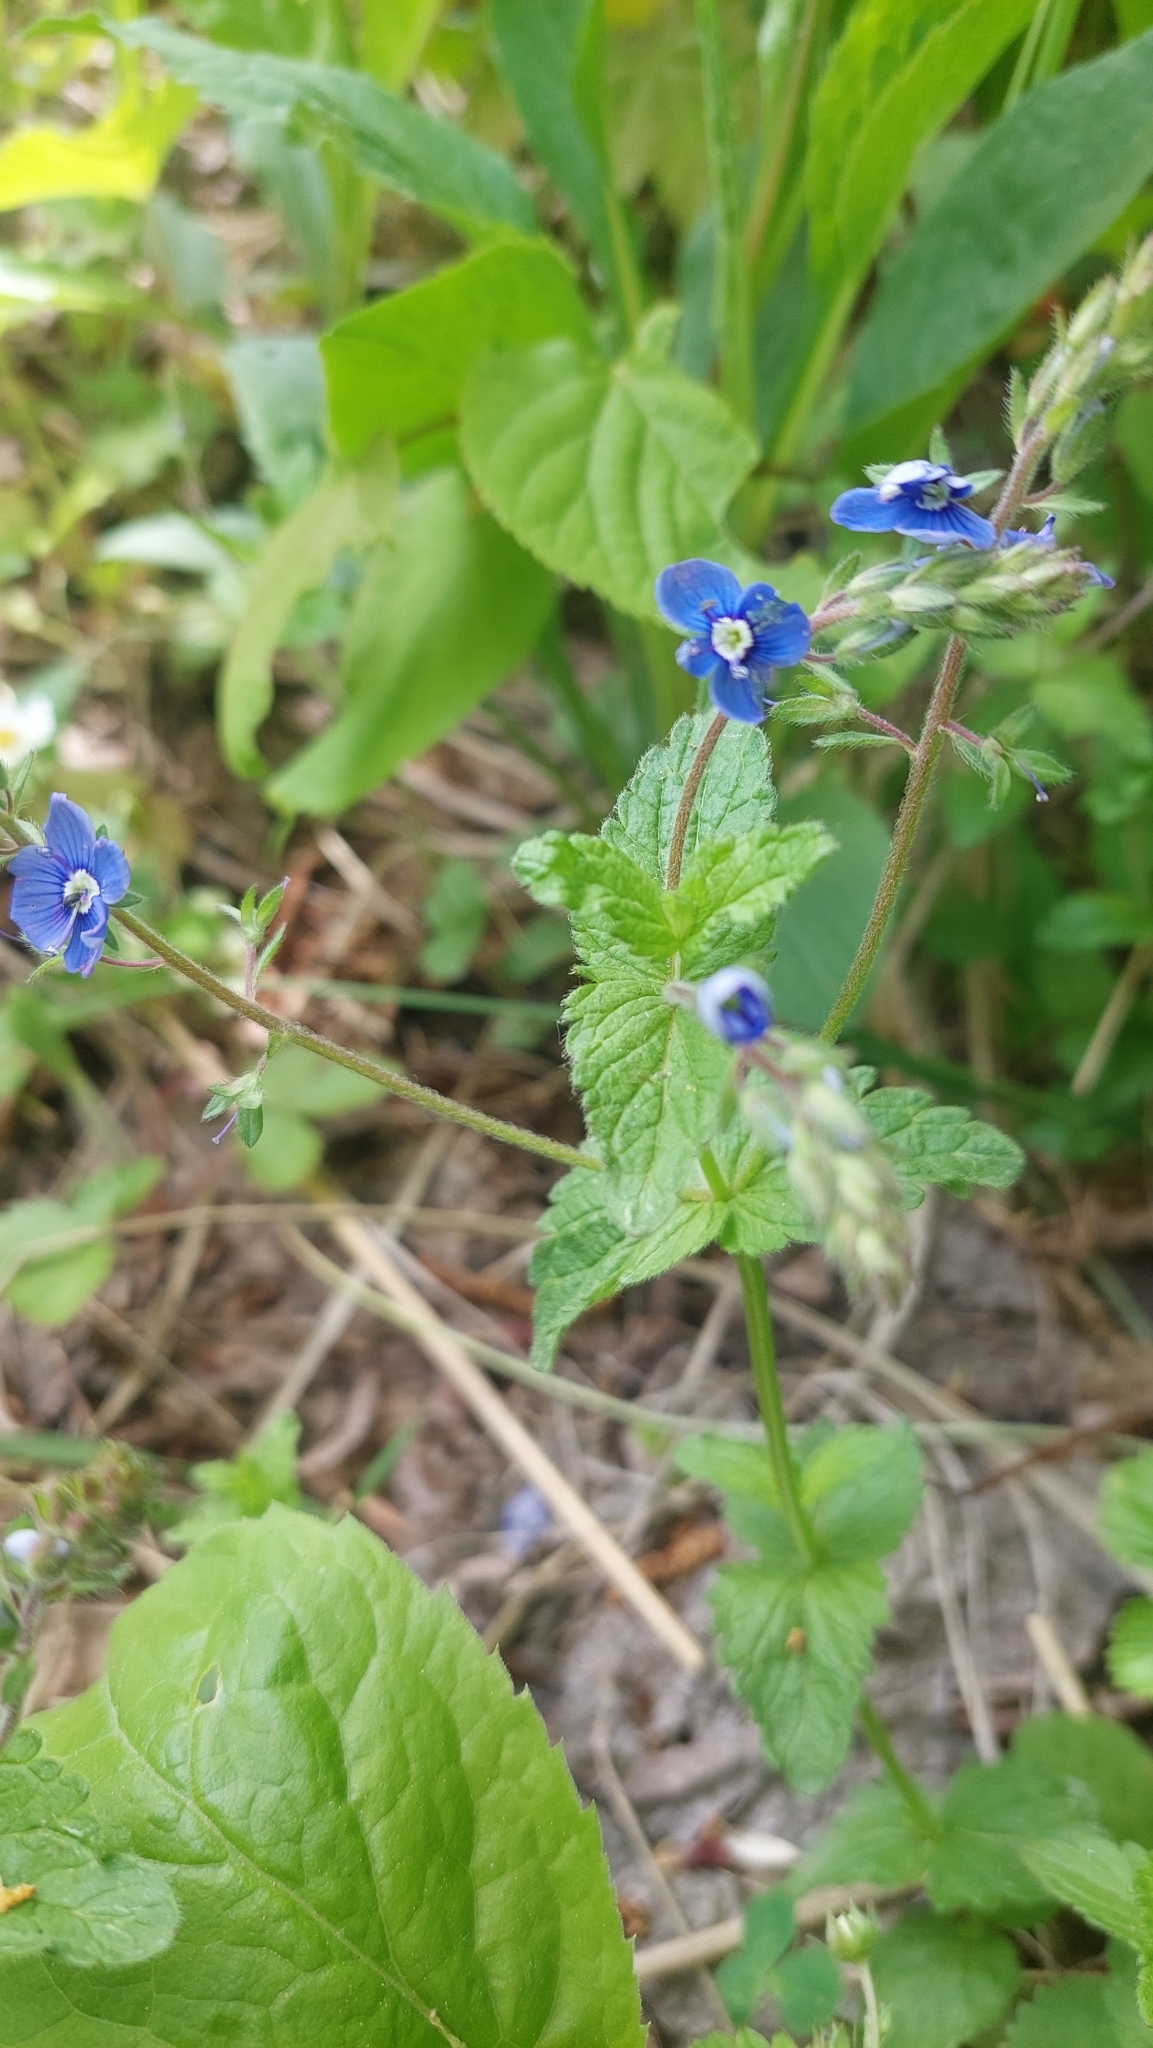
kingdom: Plantae
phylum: Tracheophyta
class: Magnoliopsida
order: Lamiales
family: Plantaginaceae
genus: Veronica
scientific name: Veronica chamaedrys
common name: Germander speedwell
